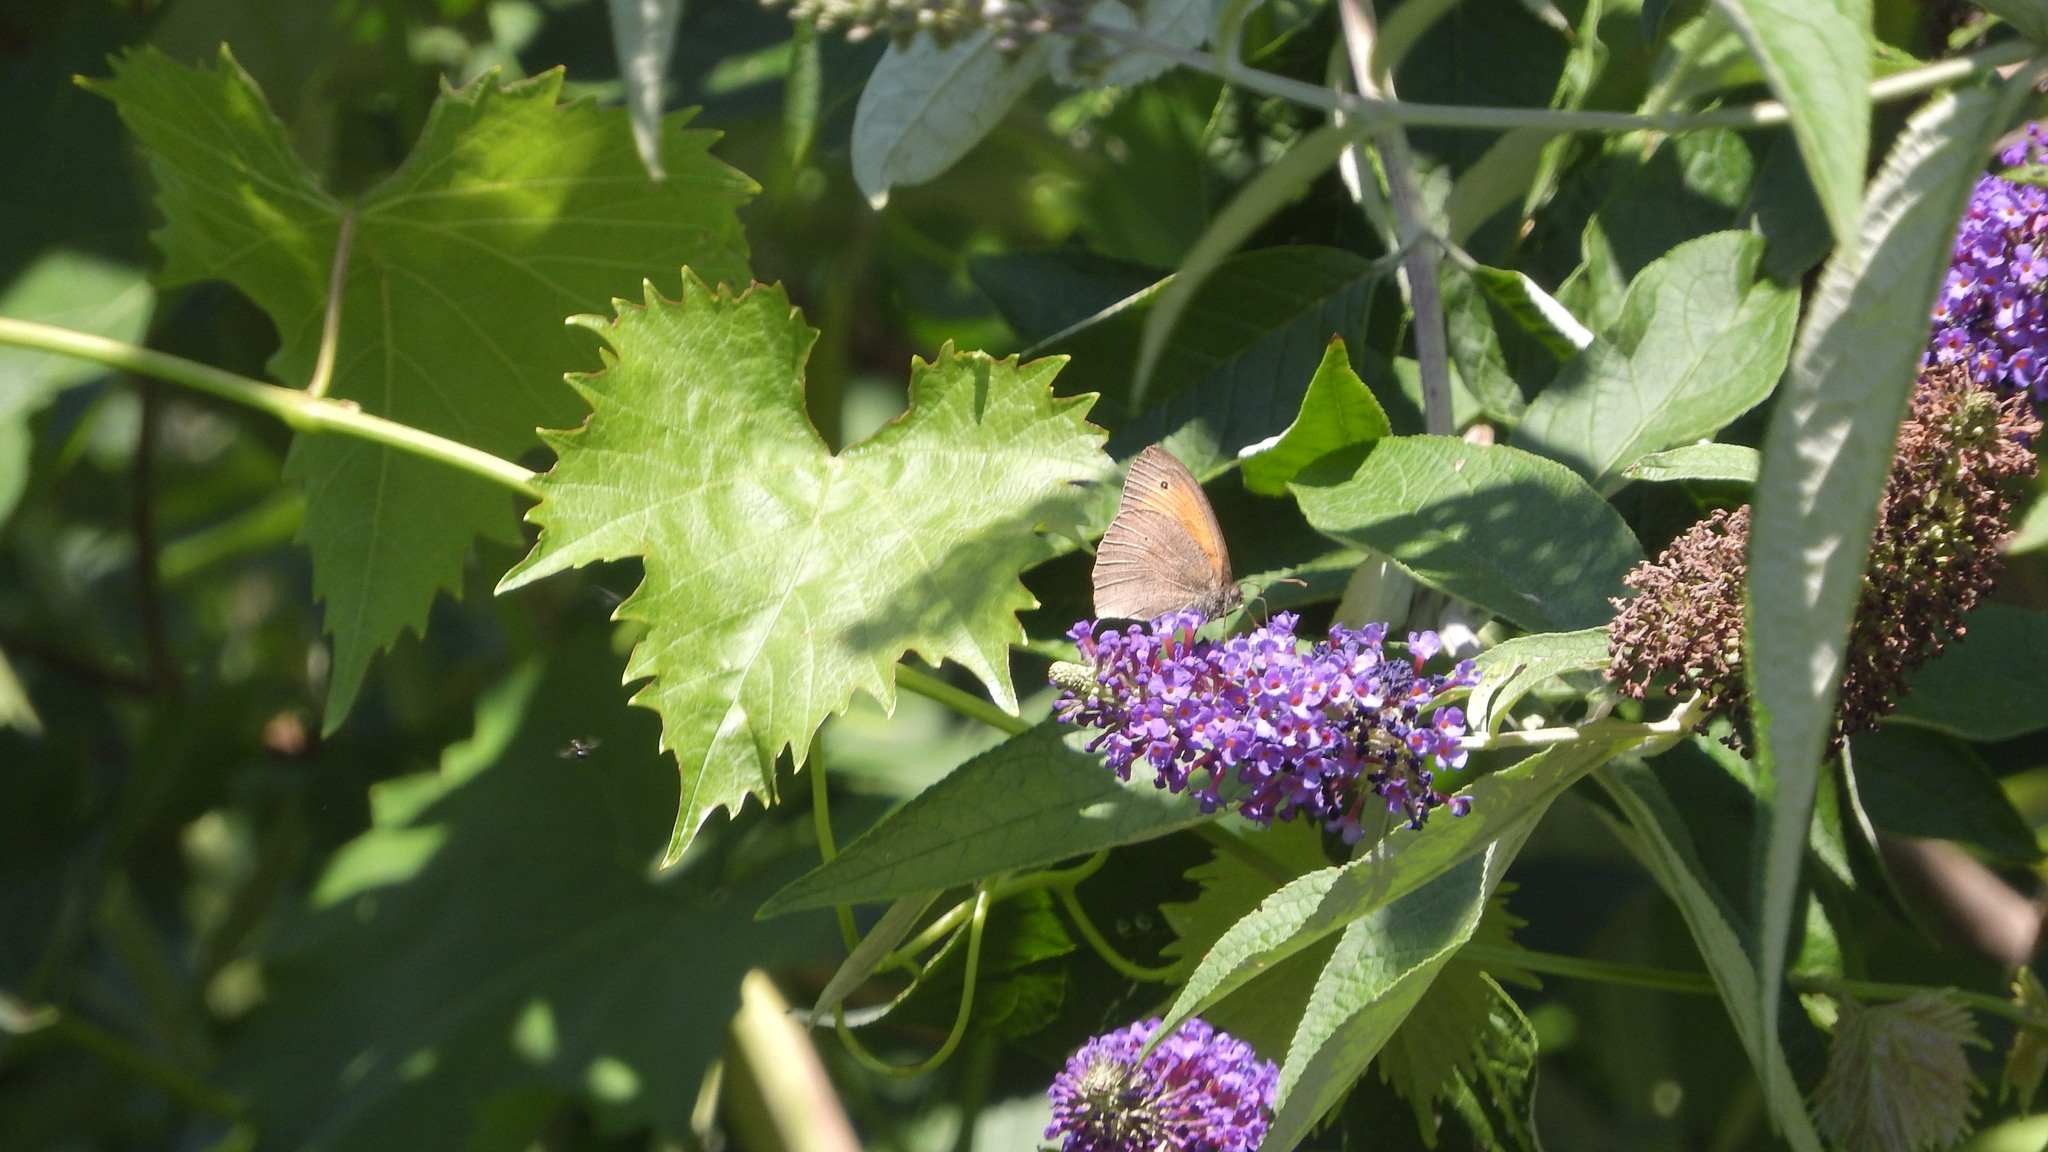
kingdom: Animalia
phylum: Arthropoda
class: Insecta
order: Lepidoptera
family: Nymphalidae
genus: Maniola
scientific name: Maniola jurtina
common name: Meadow brown
